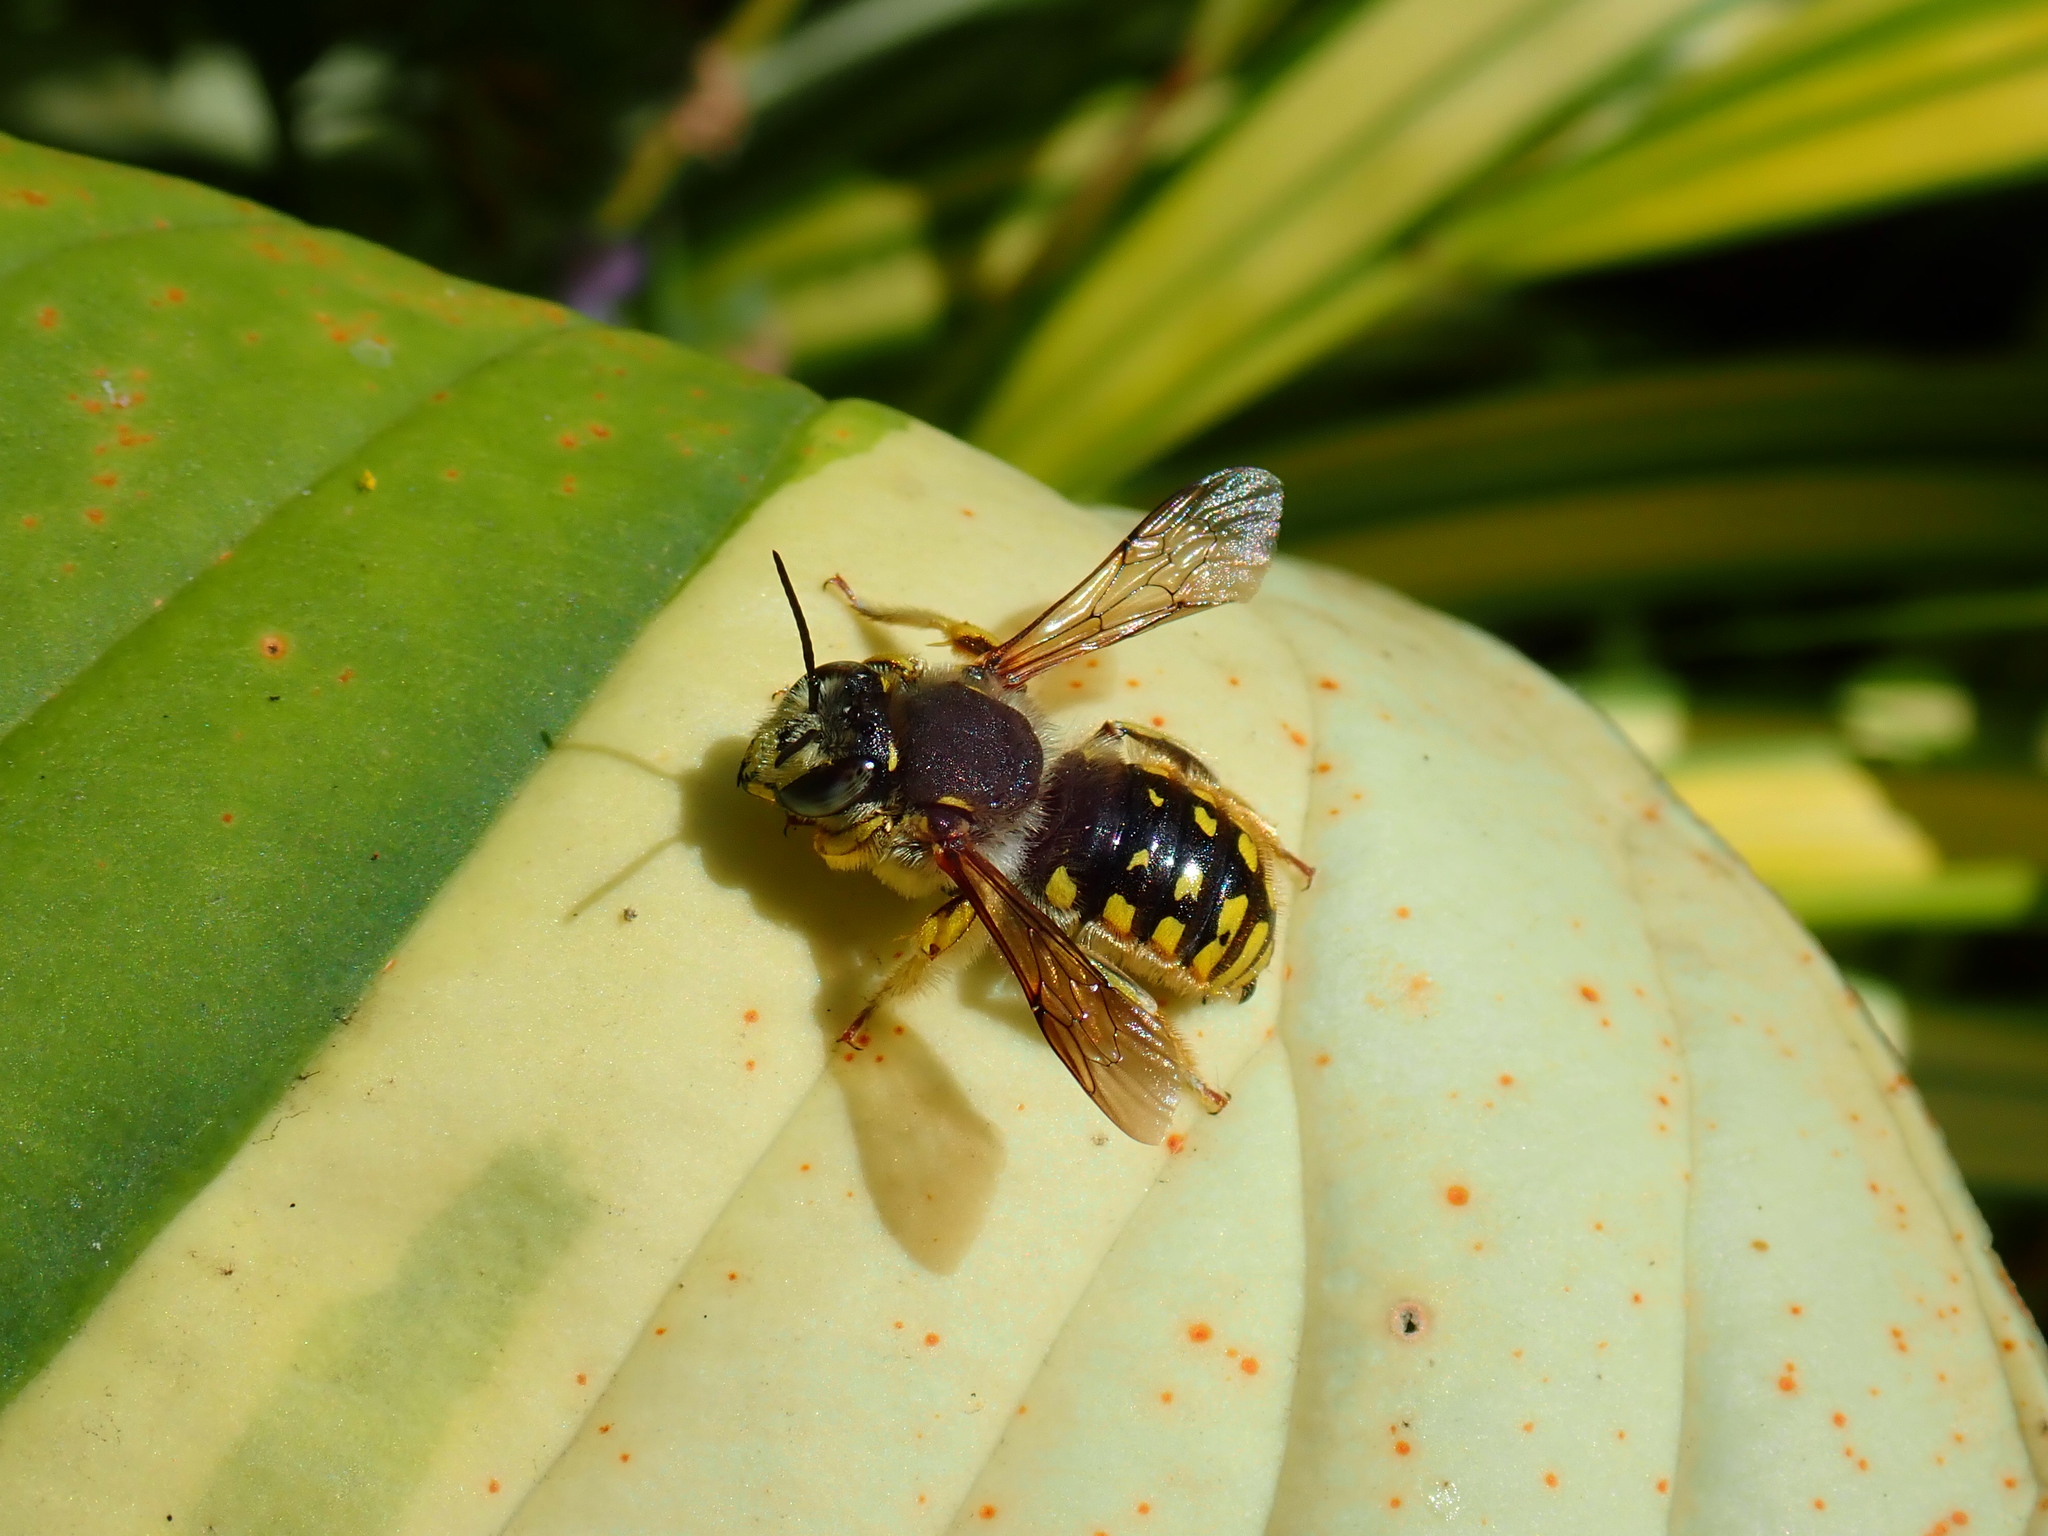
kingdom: Animalia
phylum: Arthropoda
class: Insecta
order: Hymenoptera
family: Megachilidae
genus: Anthidium
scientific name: Anthidium manicatum
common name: Wool carder bee
